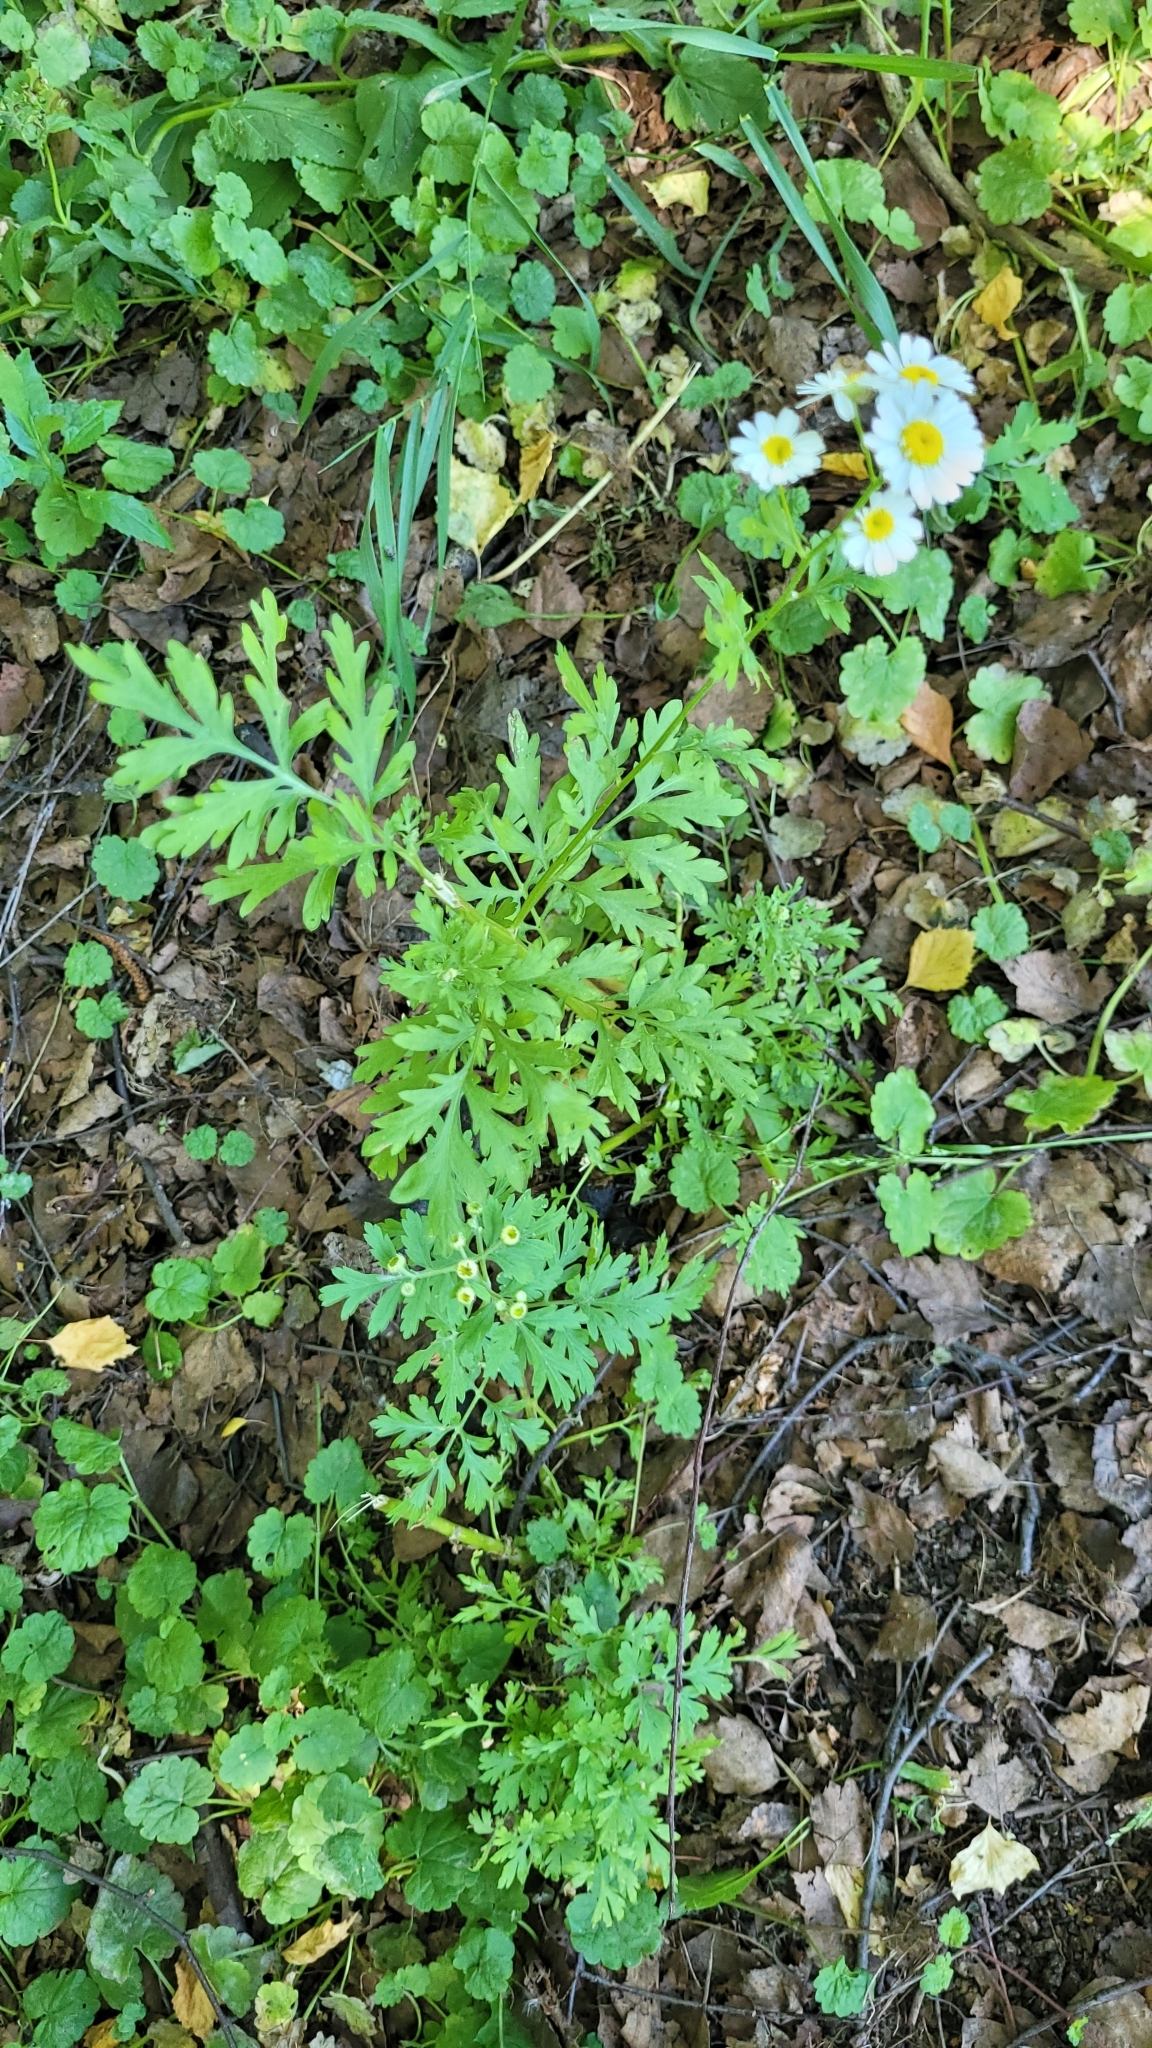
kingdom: Plantae
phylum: Tracheophyta
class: Magnoliopsida
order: Asterales
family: Asteraceae
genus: Tanacetum
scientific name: Tanacetum parthenium
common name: Feverfew
